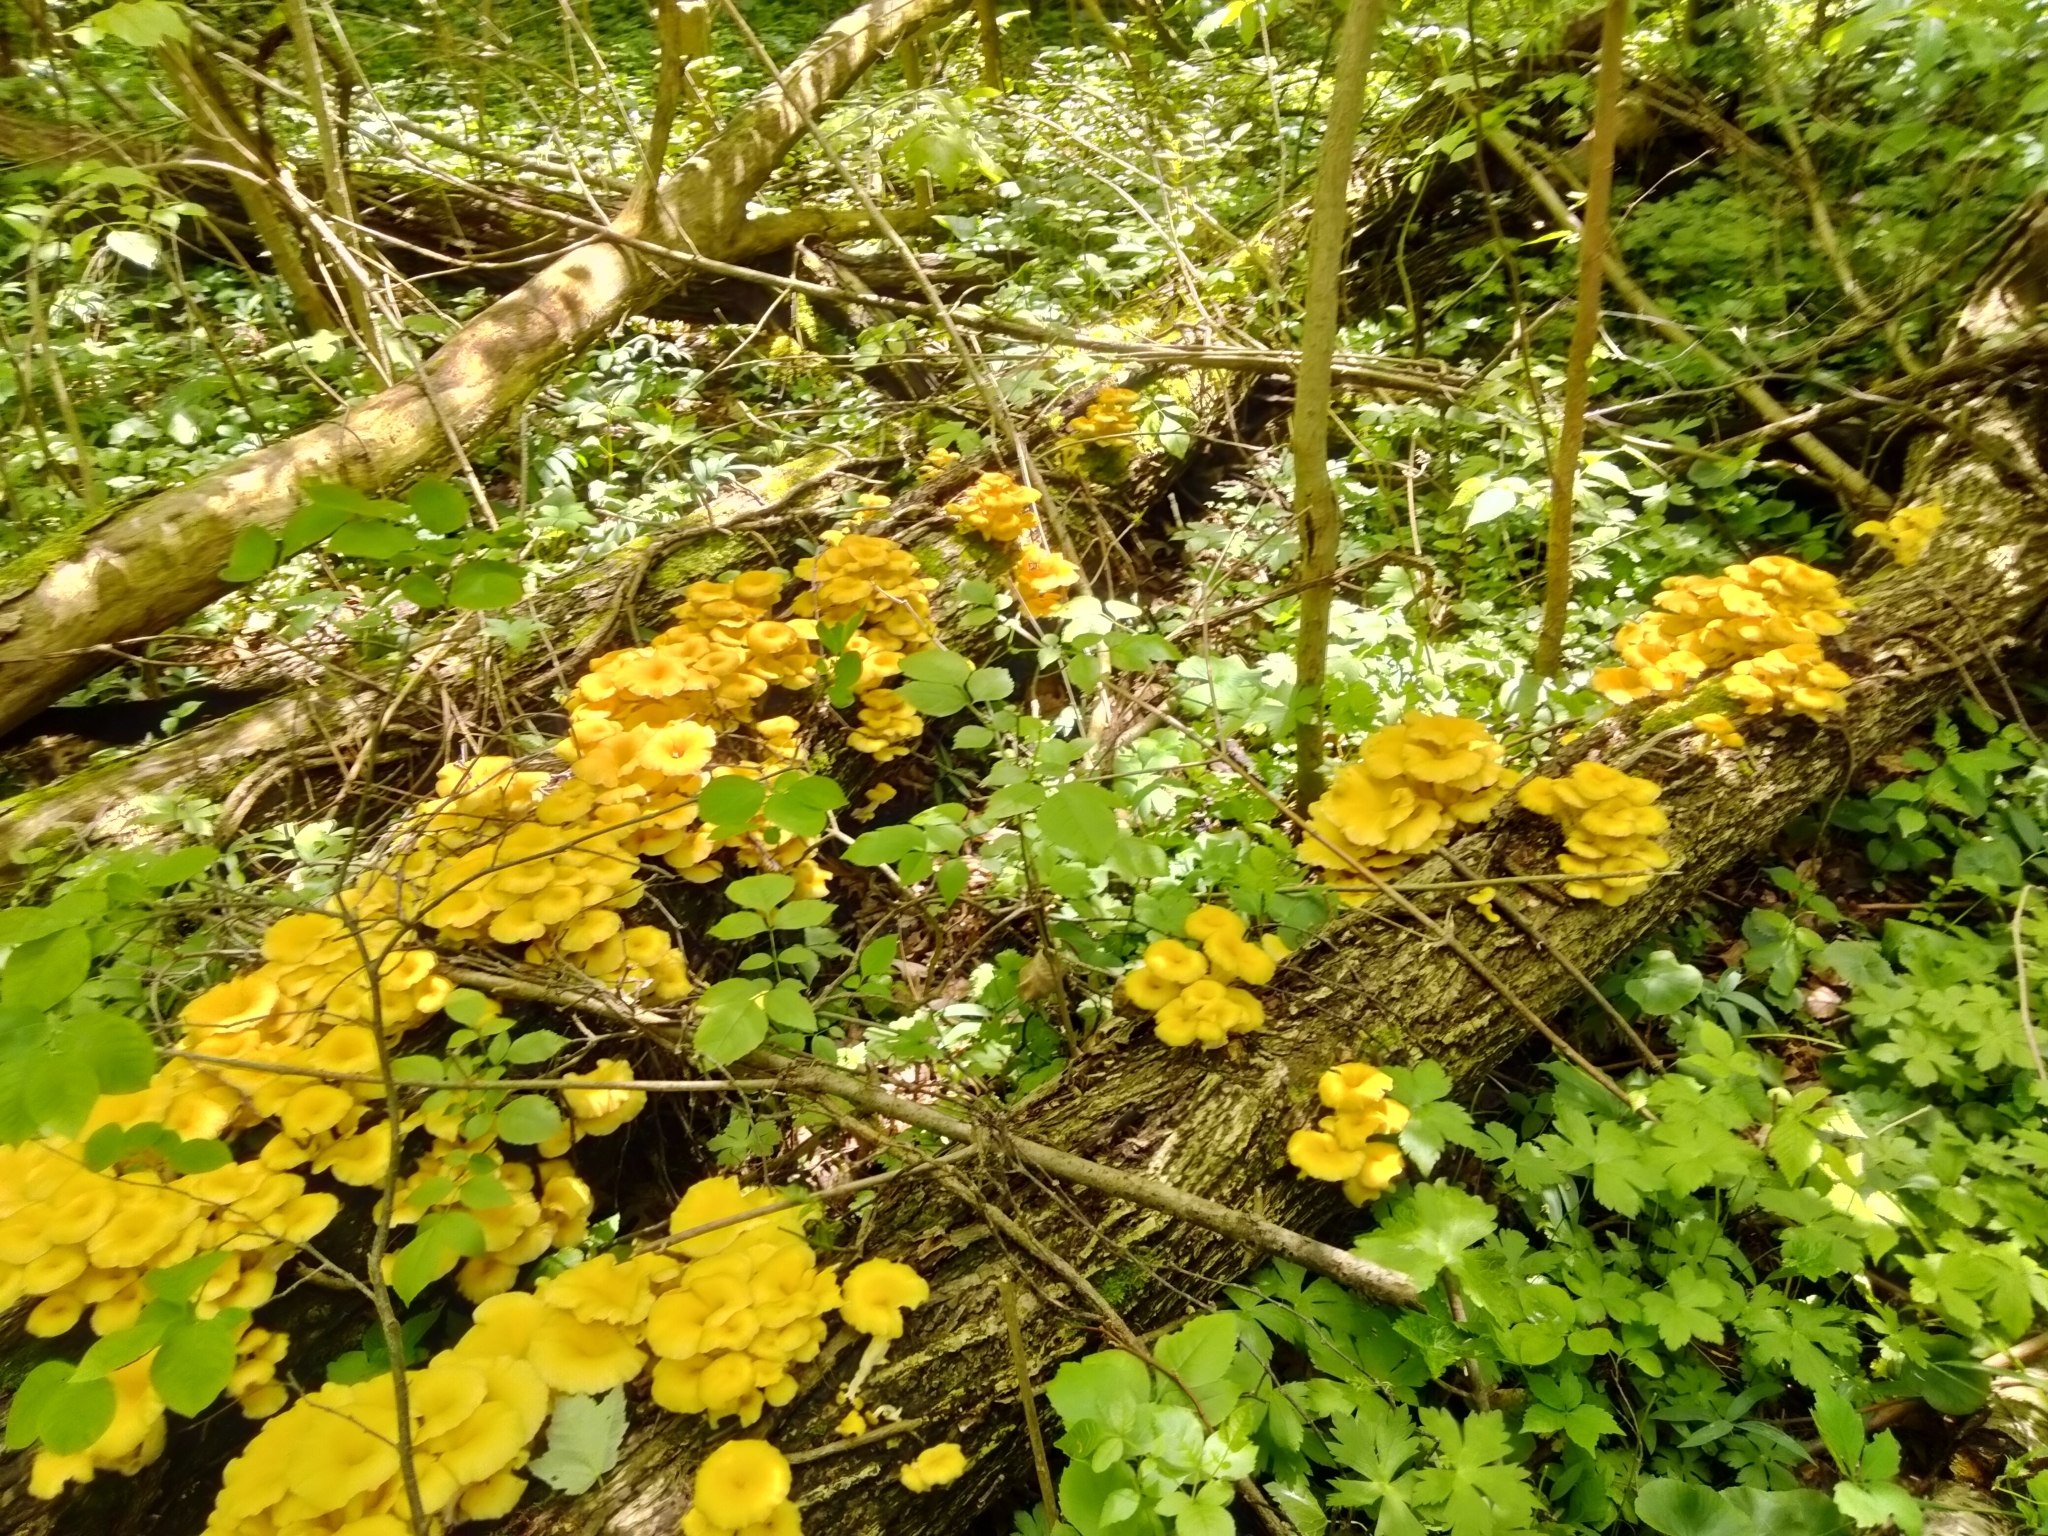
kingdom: Fungi
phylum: Basidiomycota
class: Agaricomycetes
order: Agaricales
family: Pleurotaceae
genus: Pleurotus
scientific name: Pleurotus citrinopileatus
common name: Golden oyster mushroom
